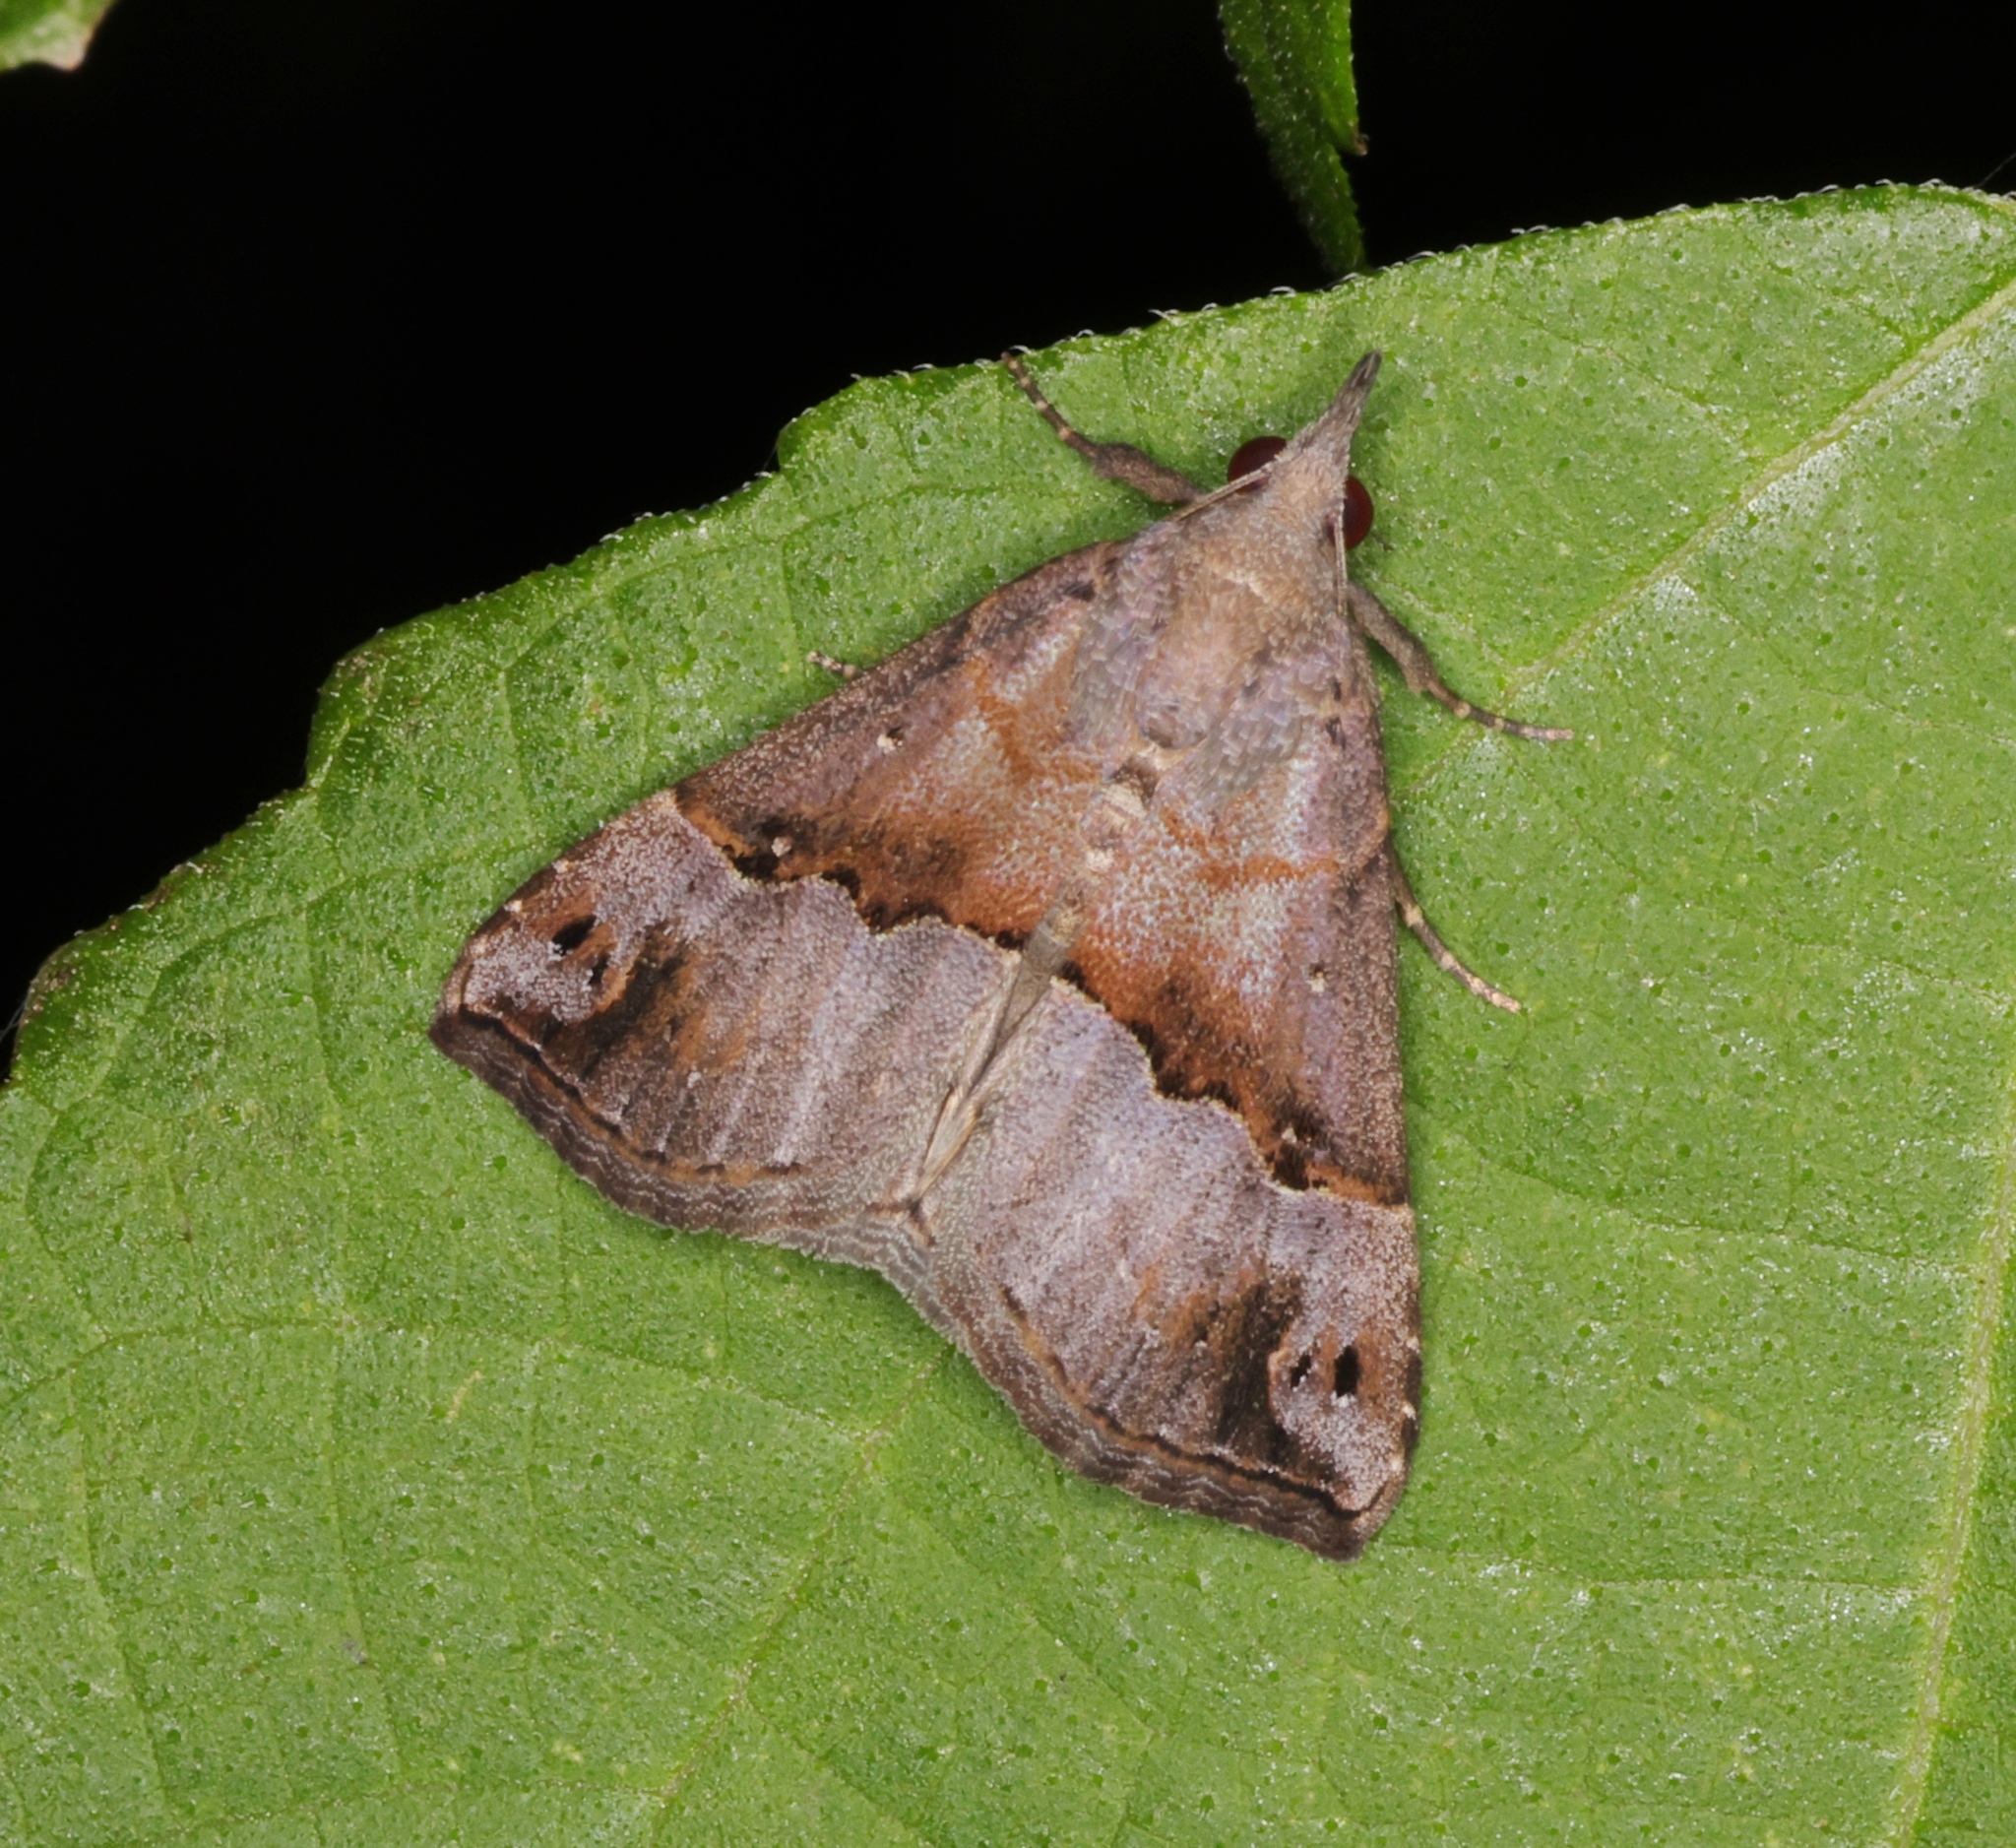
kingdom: Animalia
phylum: Arthropoda
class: Insecta
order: Lepidoptera
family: Erebidae
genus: Hypena
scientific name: Hypena indicatalis
